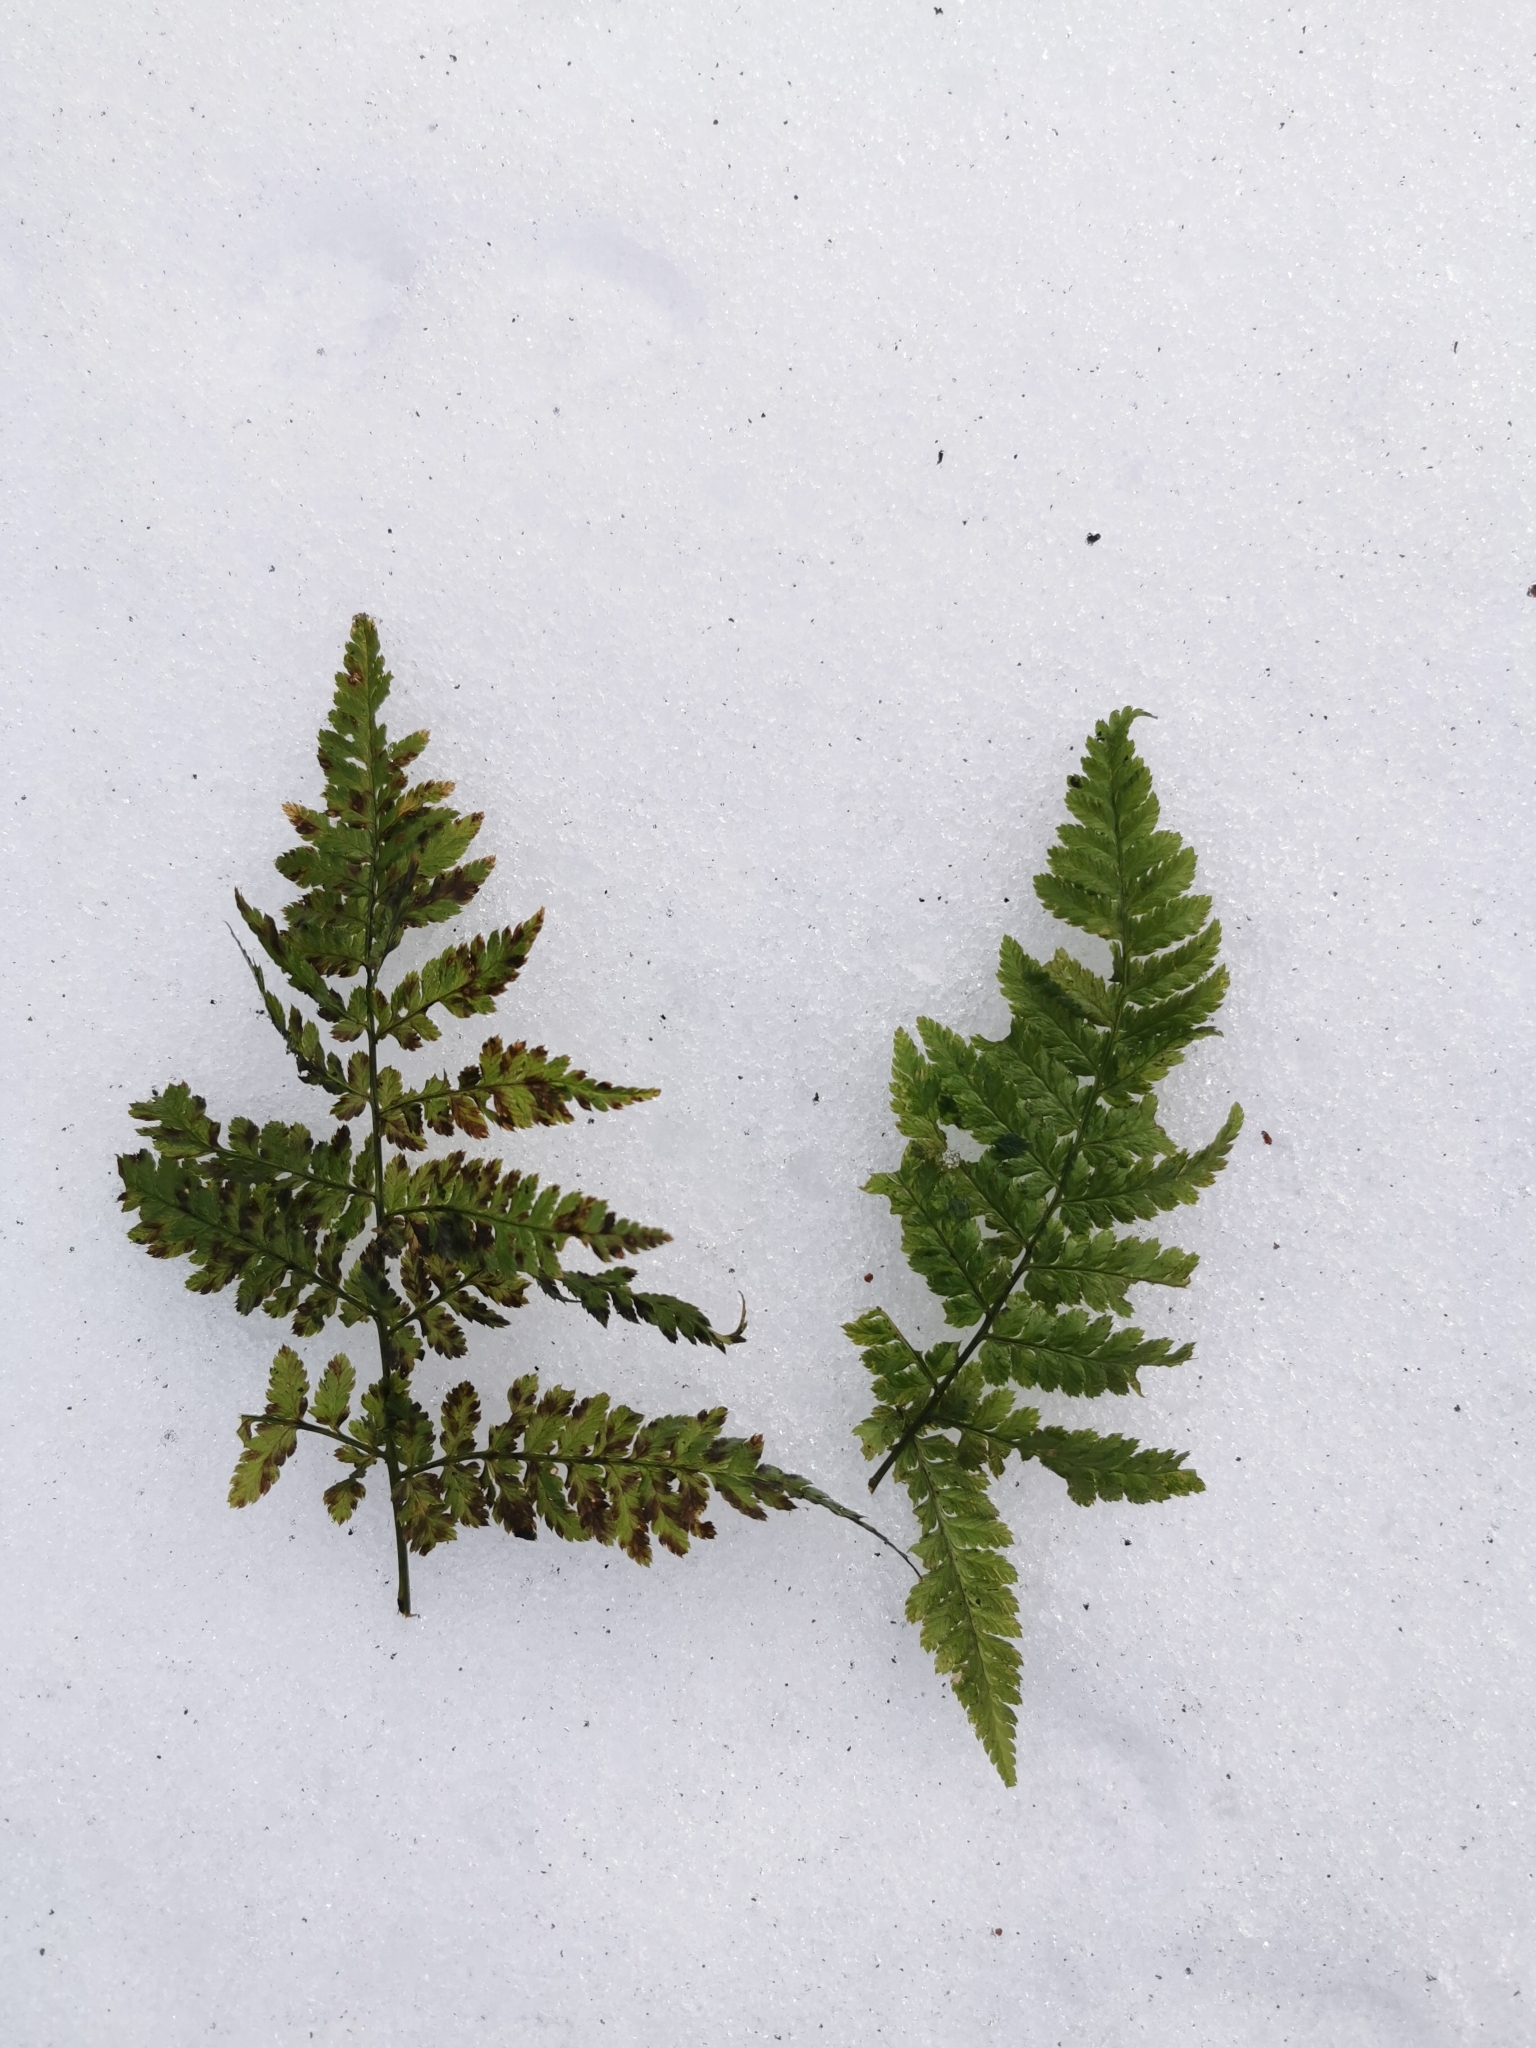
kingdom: Plantae
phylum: Tracheophyta
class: Polypodiopsida
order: Polypodiales
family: Dryopteridaceae
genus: Dryopteris
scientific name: Dryopteris carthusiana
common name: Narrow buckler-fern
